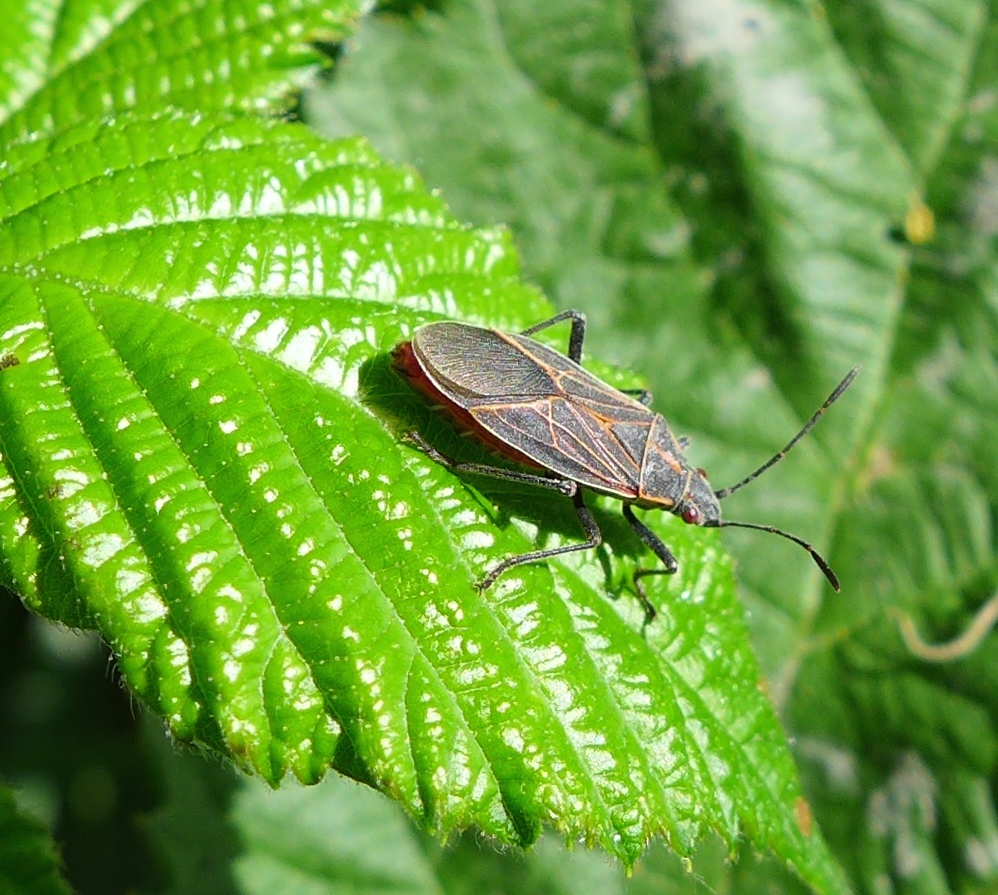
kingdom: Animalia
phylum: Arthropoda
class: Insecta
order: Hemiptera
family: Rhopalidae
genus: Boisea
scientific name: Boisea rubrolineata
